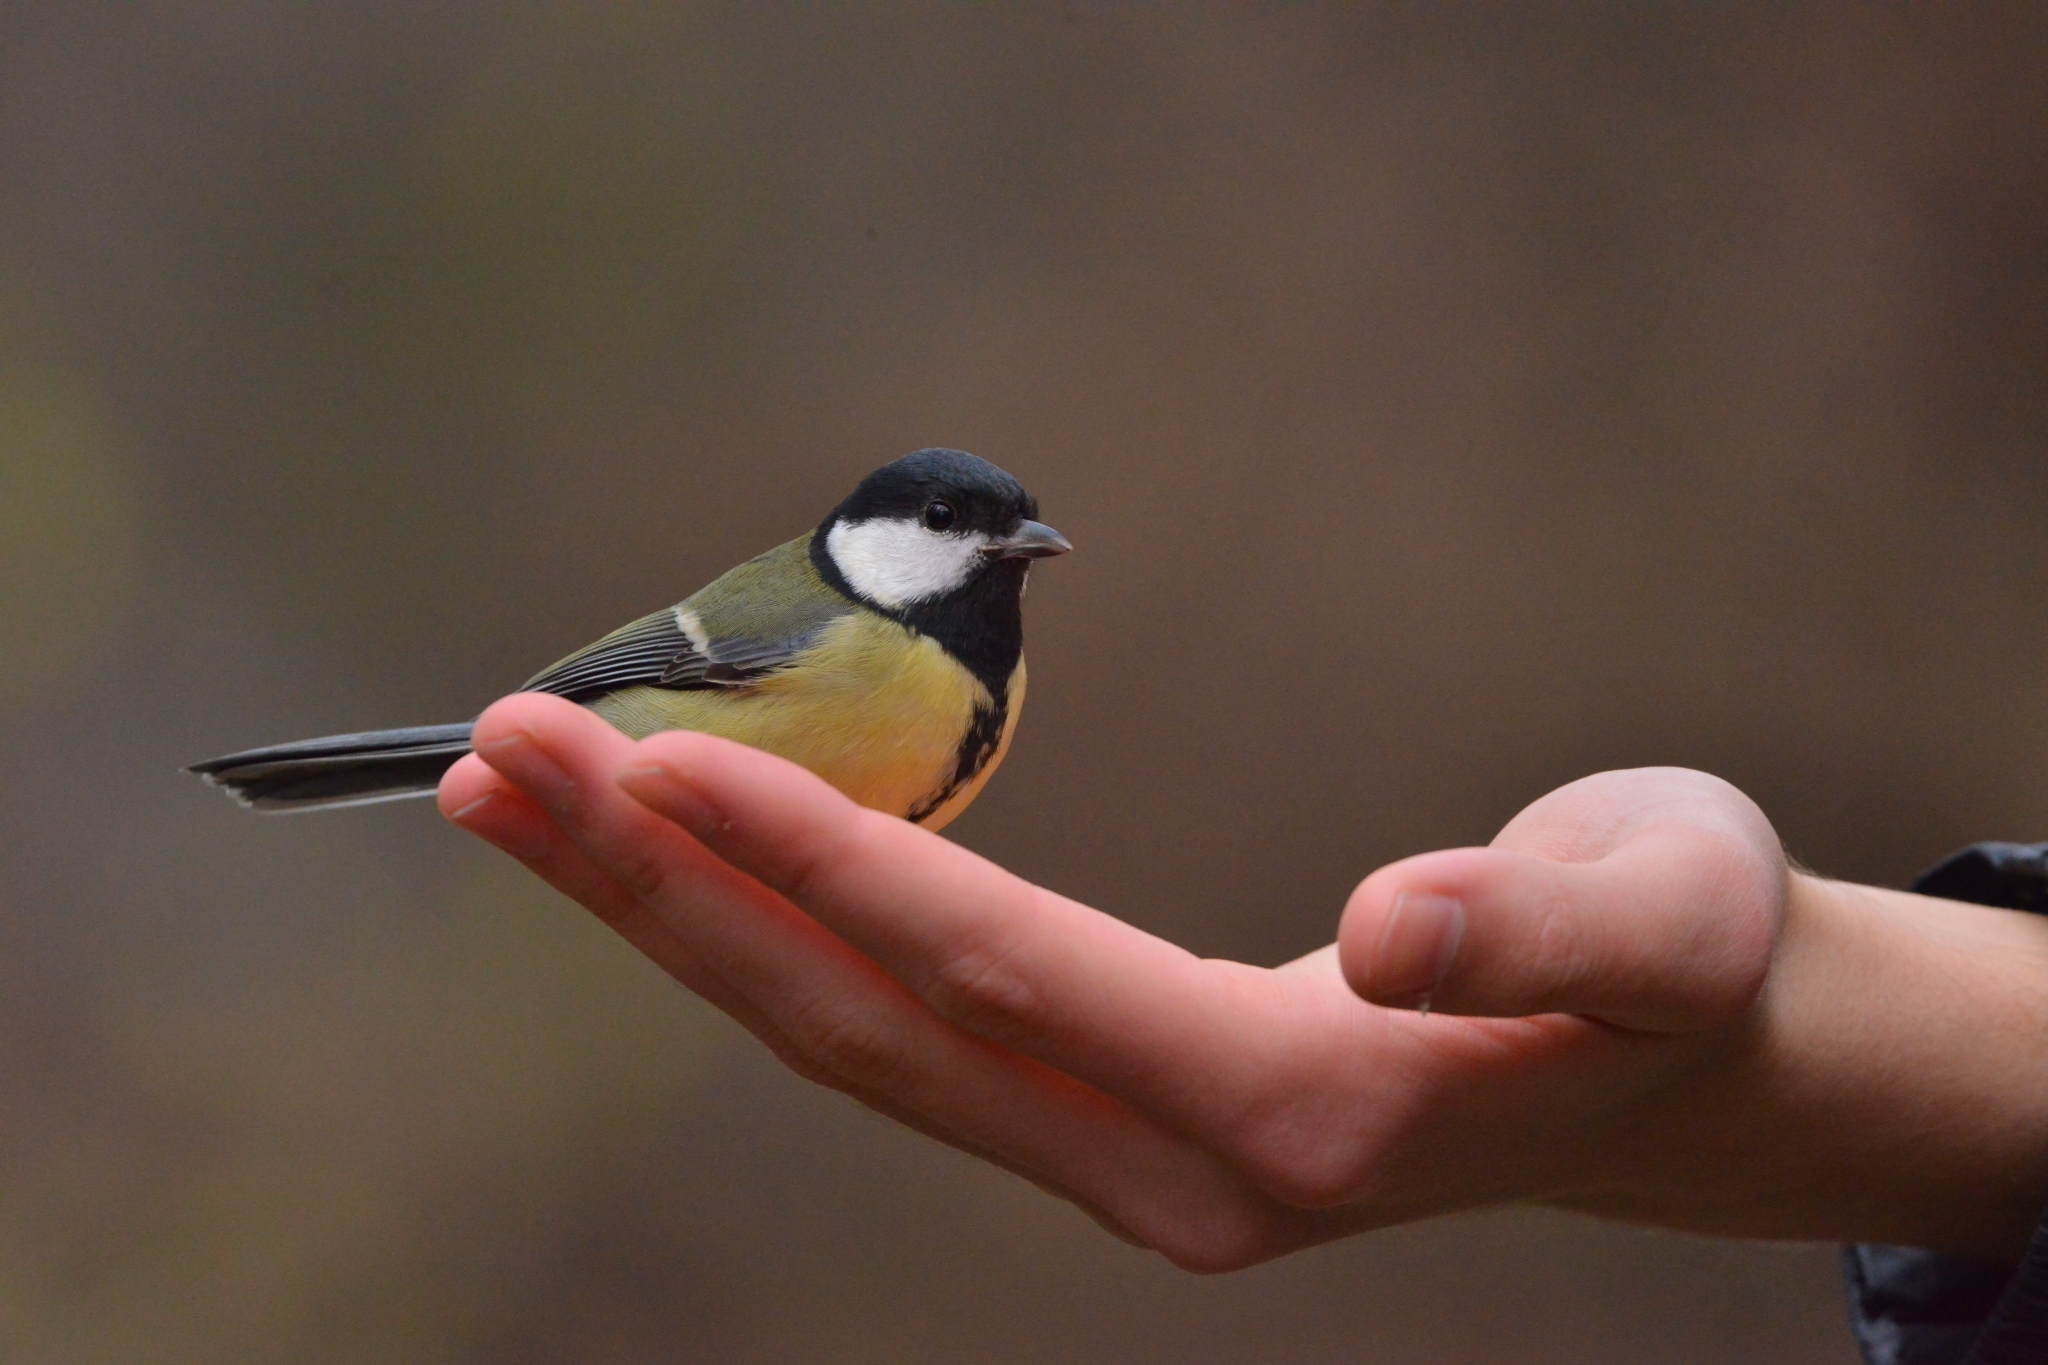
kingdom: Animalia
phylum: Chordata
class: Aves
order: Passeriformes
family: Paridae
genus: Parus
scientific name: Parus major
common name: Great tit
